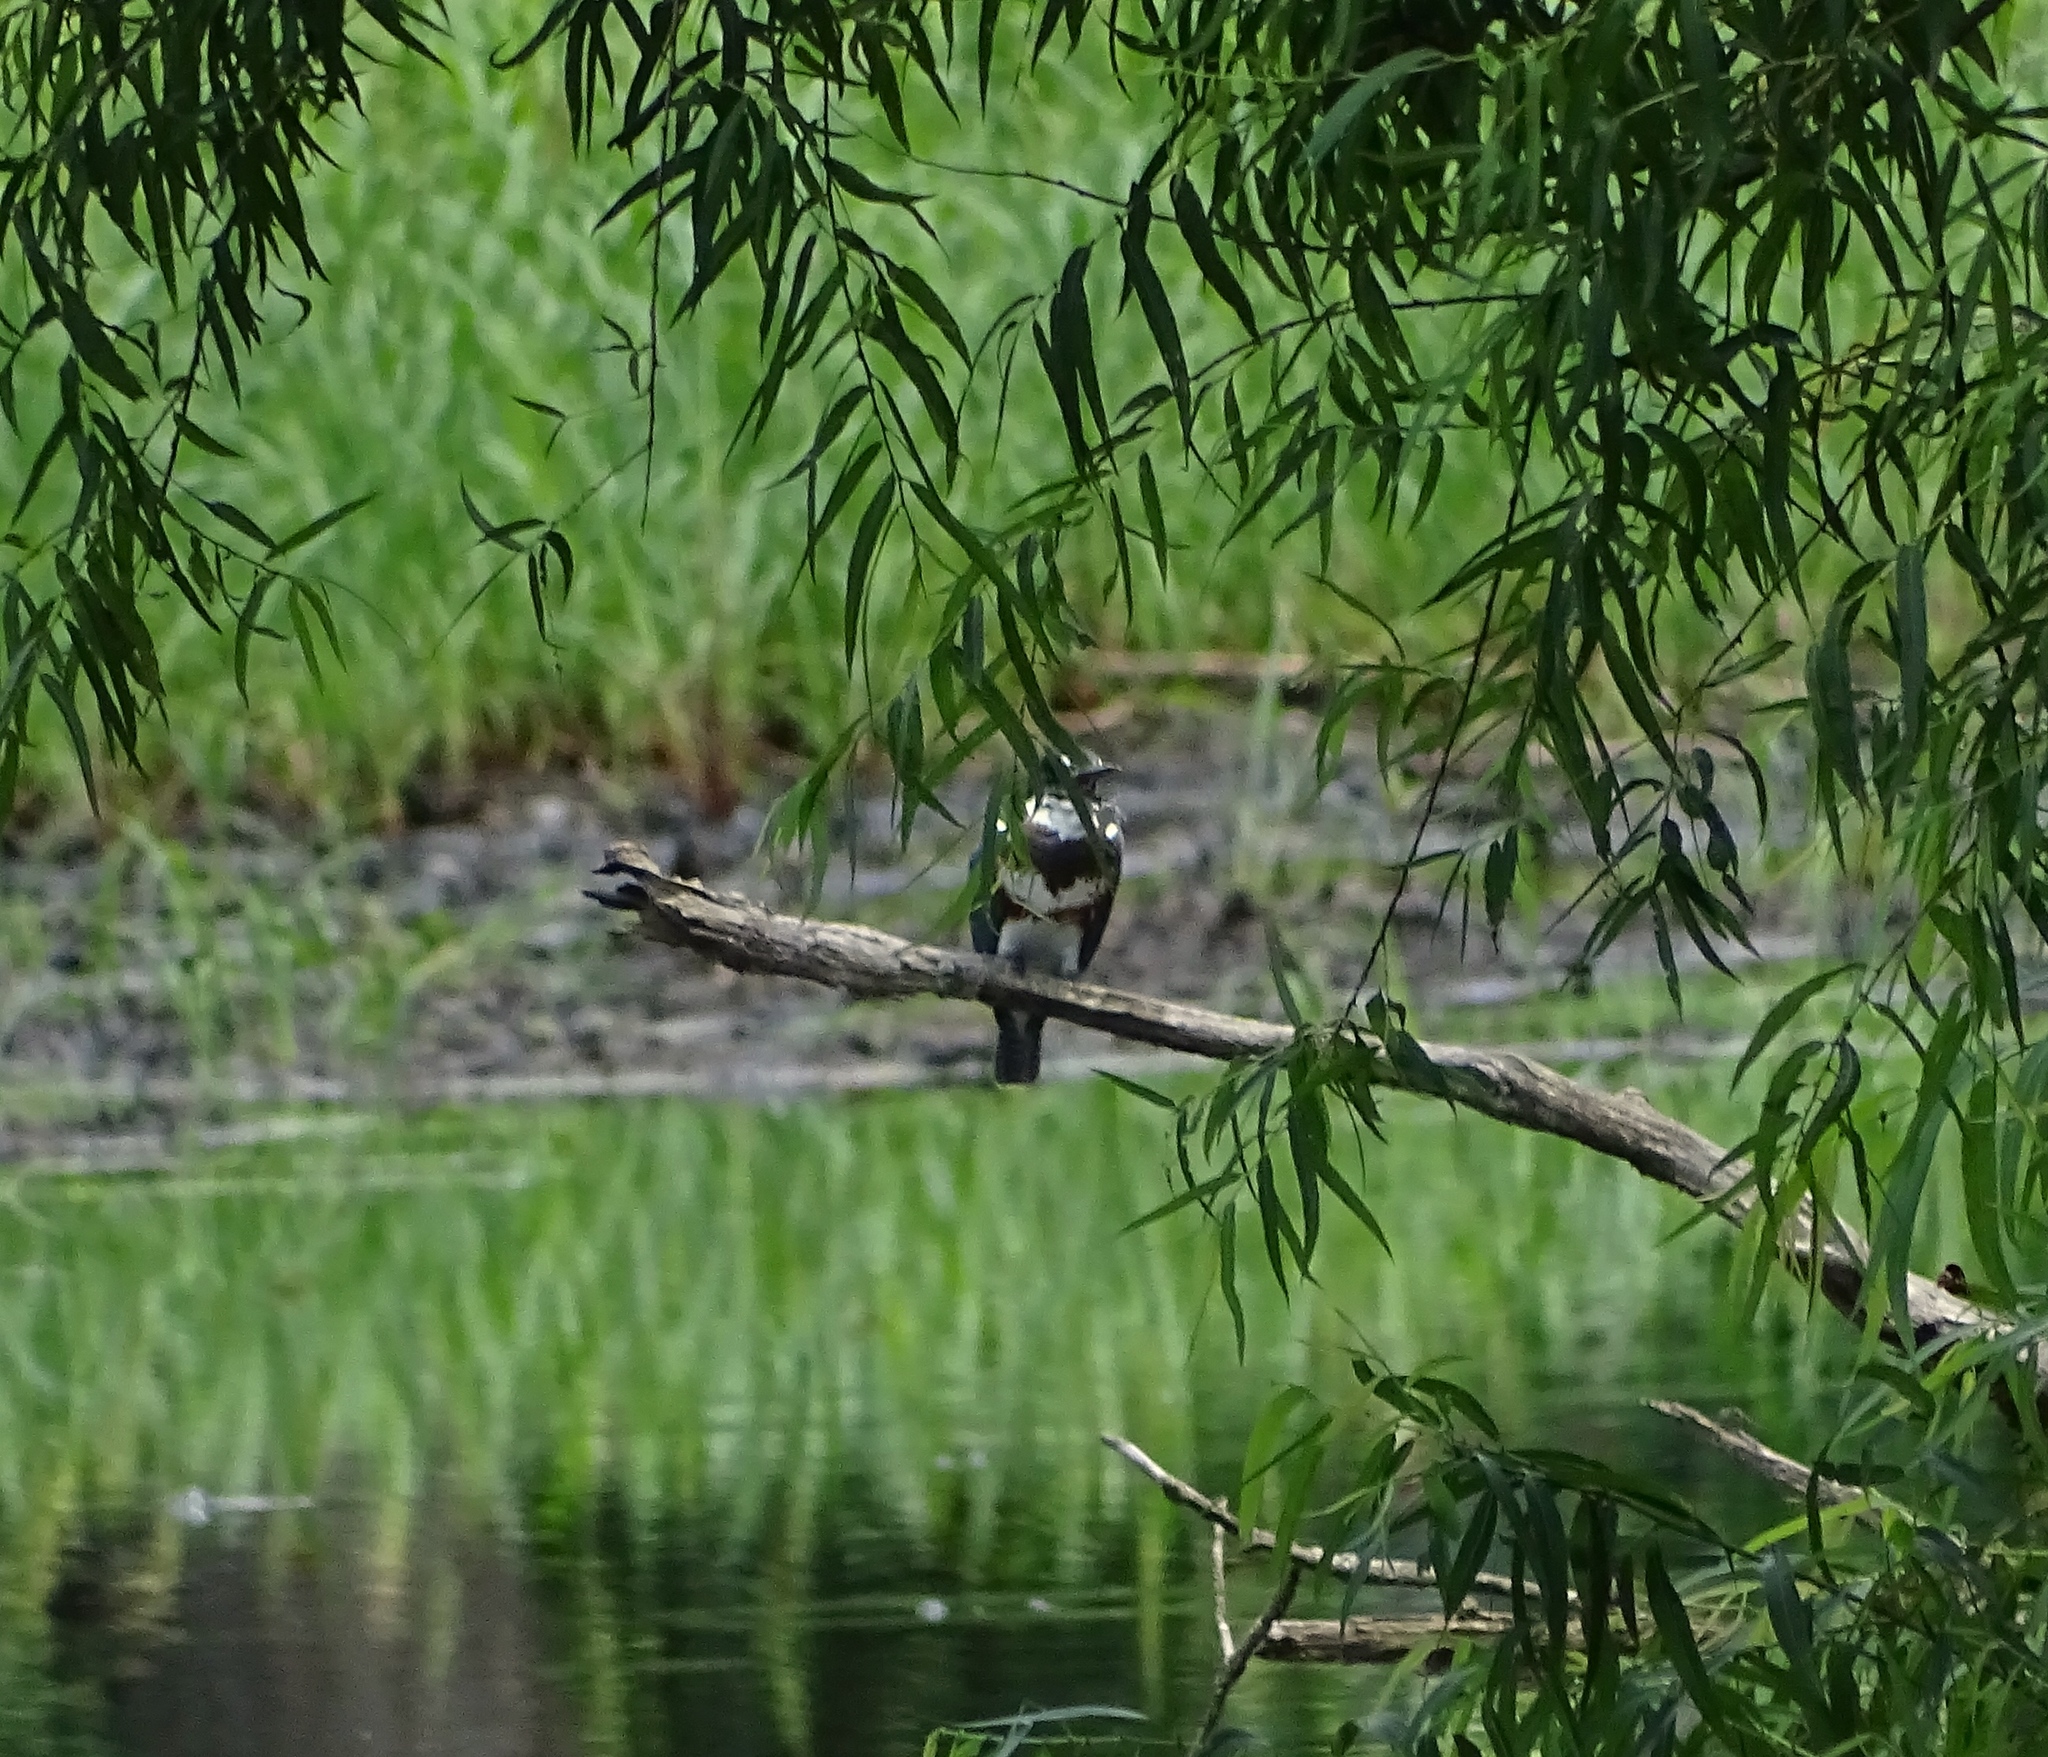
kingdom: Animalia
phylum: Chordata
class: Aves
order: Coraciiformes
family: Alcedinidae
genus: Megaceryle
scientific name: Megaceryle alcyon
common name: Belted kingfisher
